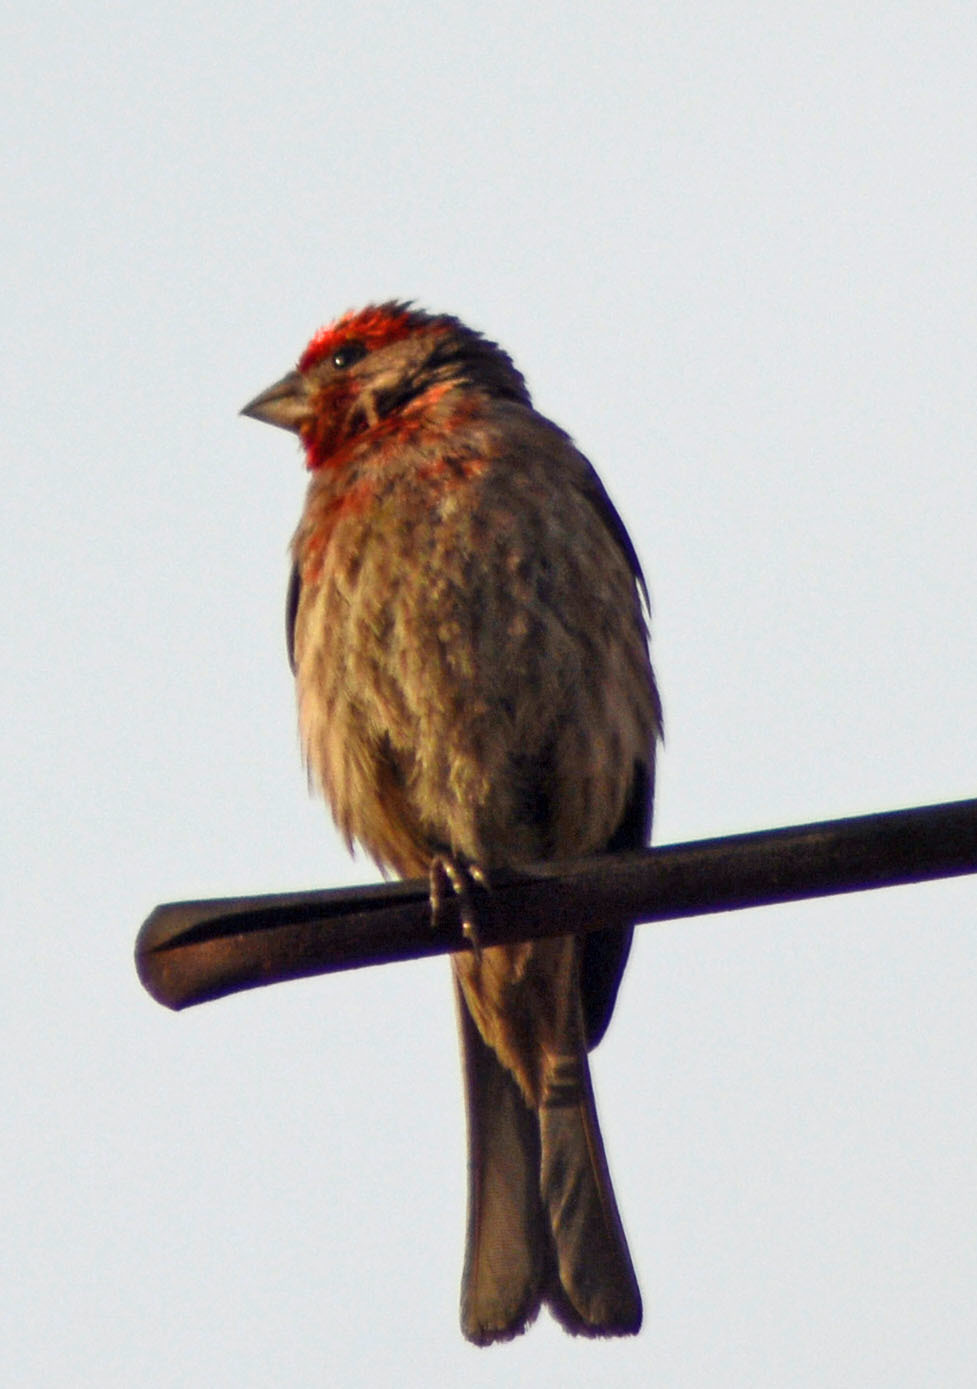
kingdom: Animalia
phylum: Chordata
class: Aves
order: Passeriformes
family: Fringillidae
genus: Haemorhous
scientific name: Haemorhous mexicanus
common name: House finch
